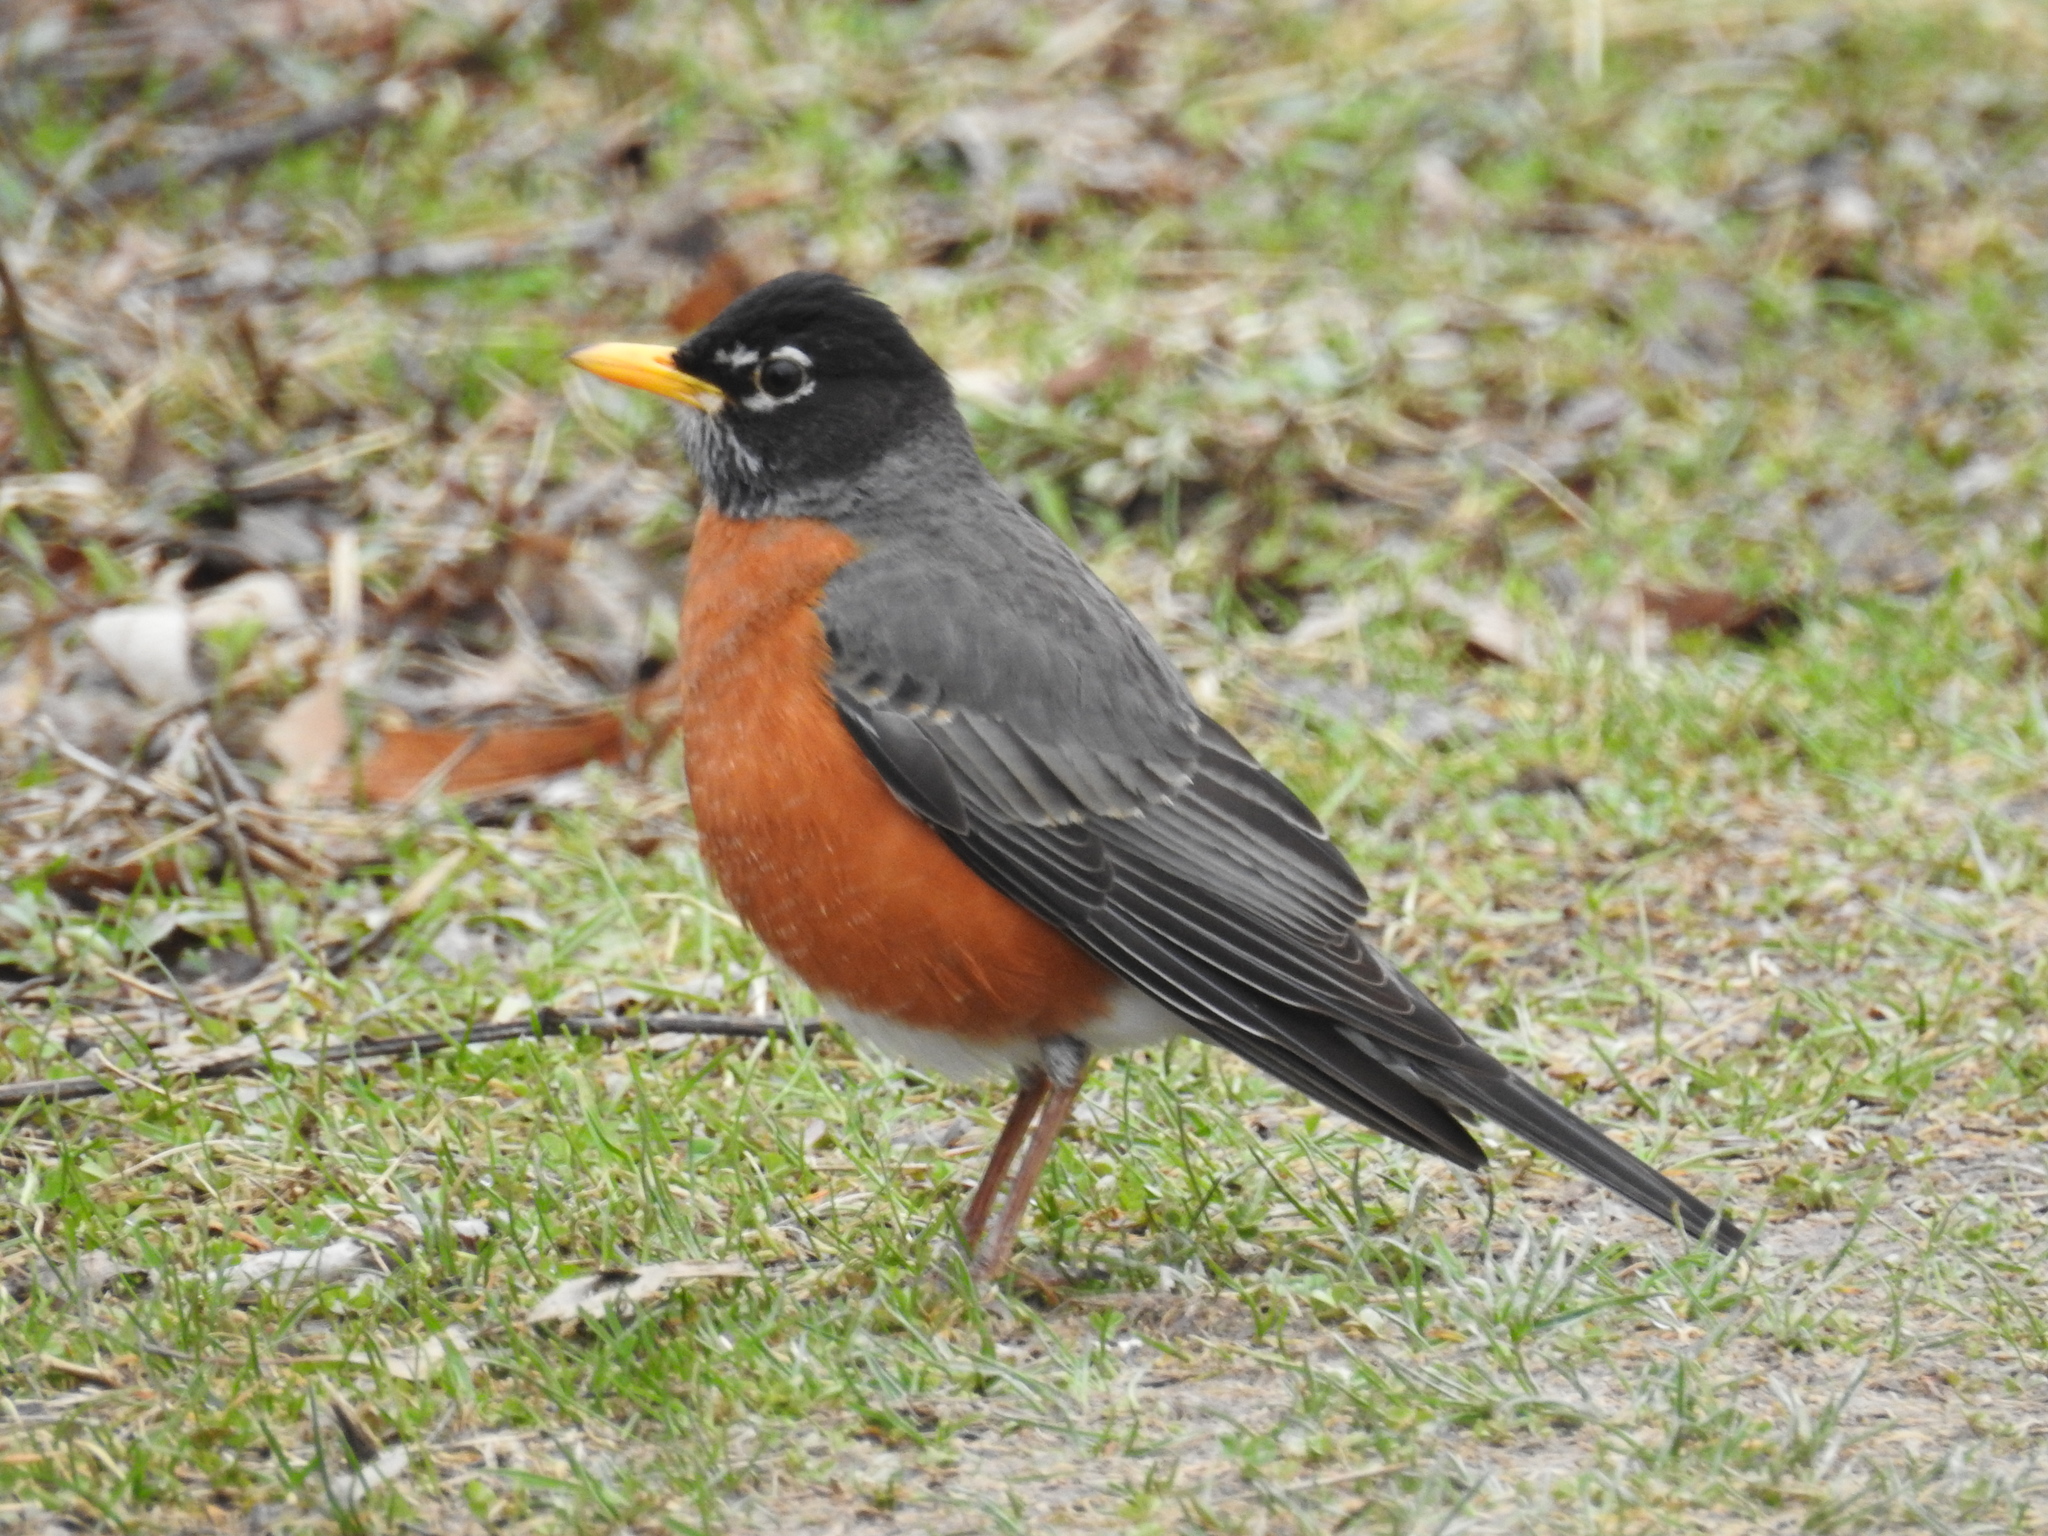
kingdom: Animalia
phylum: Chordata
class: Aves
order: Passeriformes
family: Turdidae
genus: Turdus
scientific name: Turdus migratorius
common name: American robin
